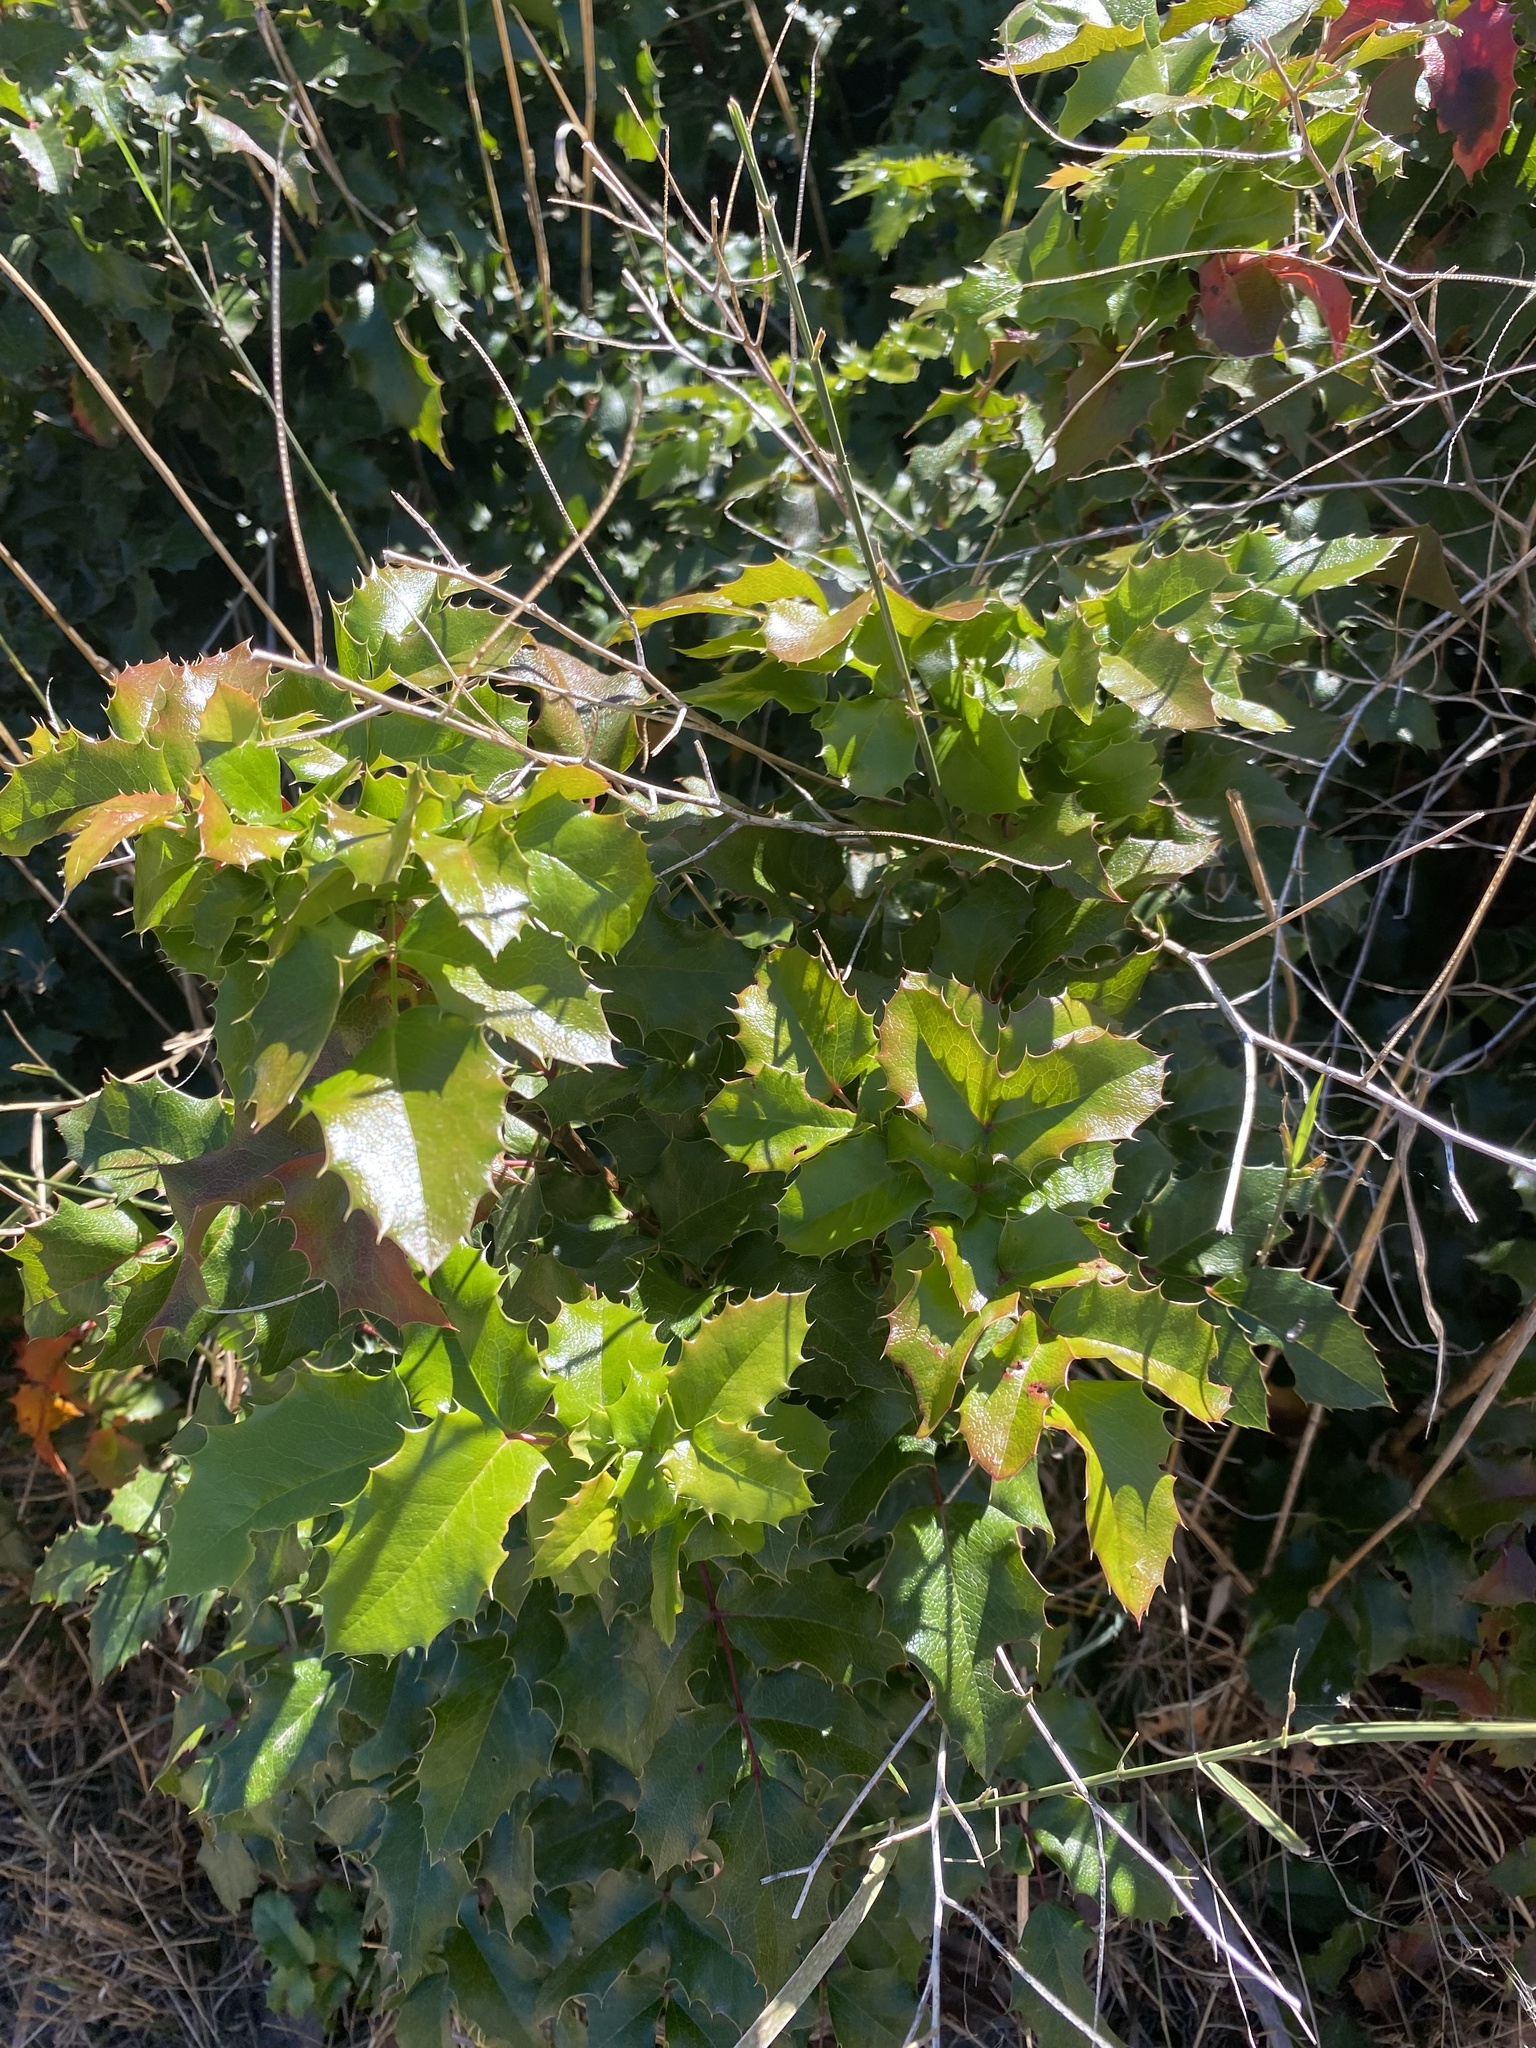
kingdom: Plantae
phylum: Tracheophyta
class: Magnoliopsida
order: Ranunculales
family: Berberidaceae
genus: Mahonia
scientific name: Mahonia aquifolium
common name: Oregon-grape
